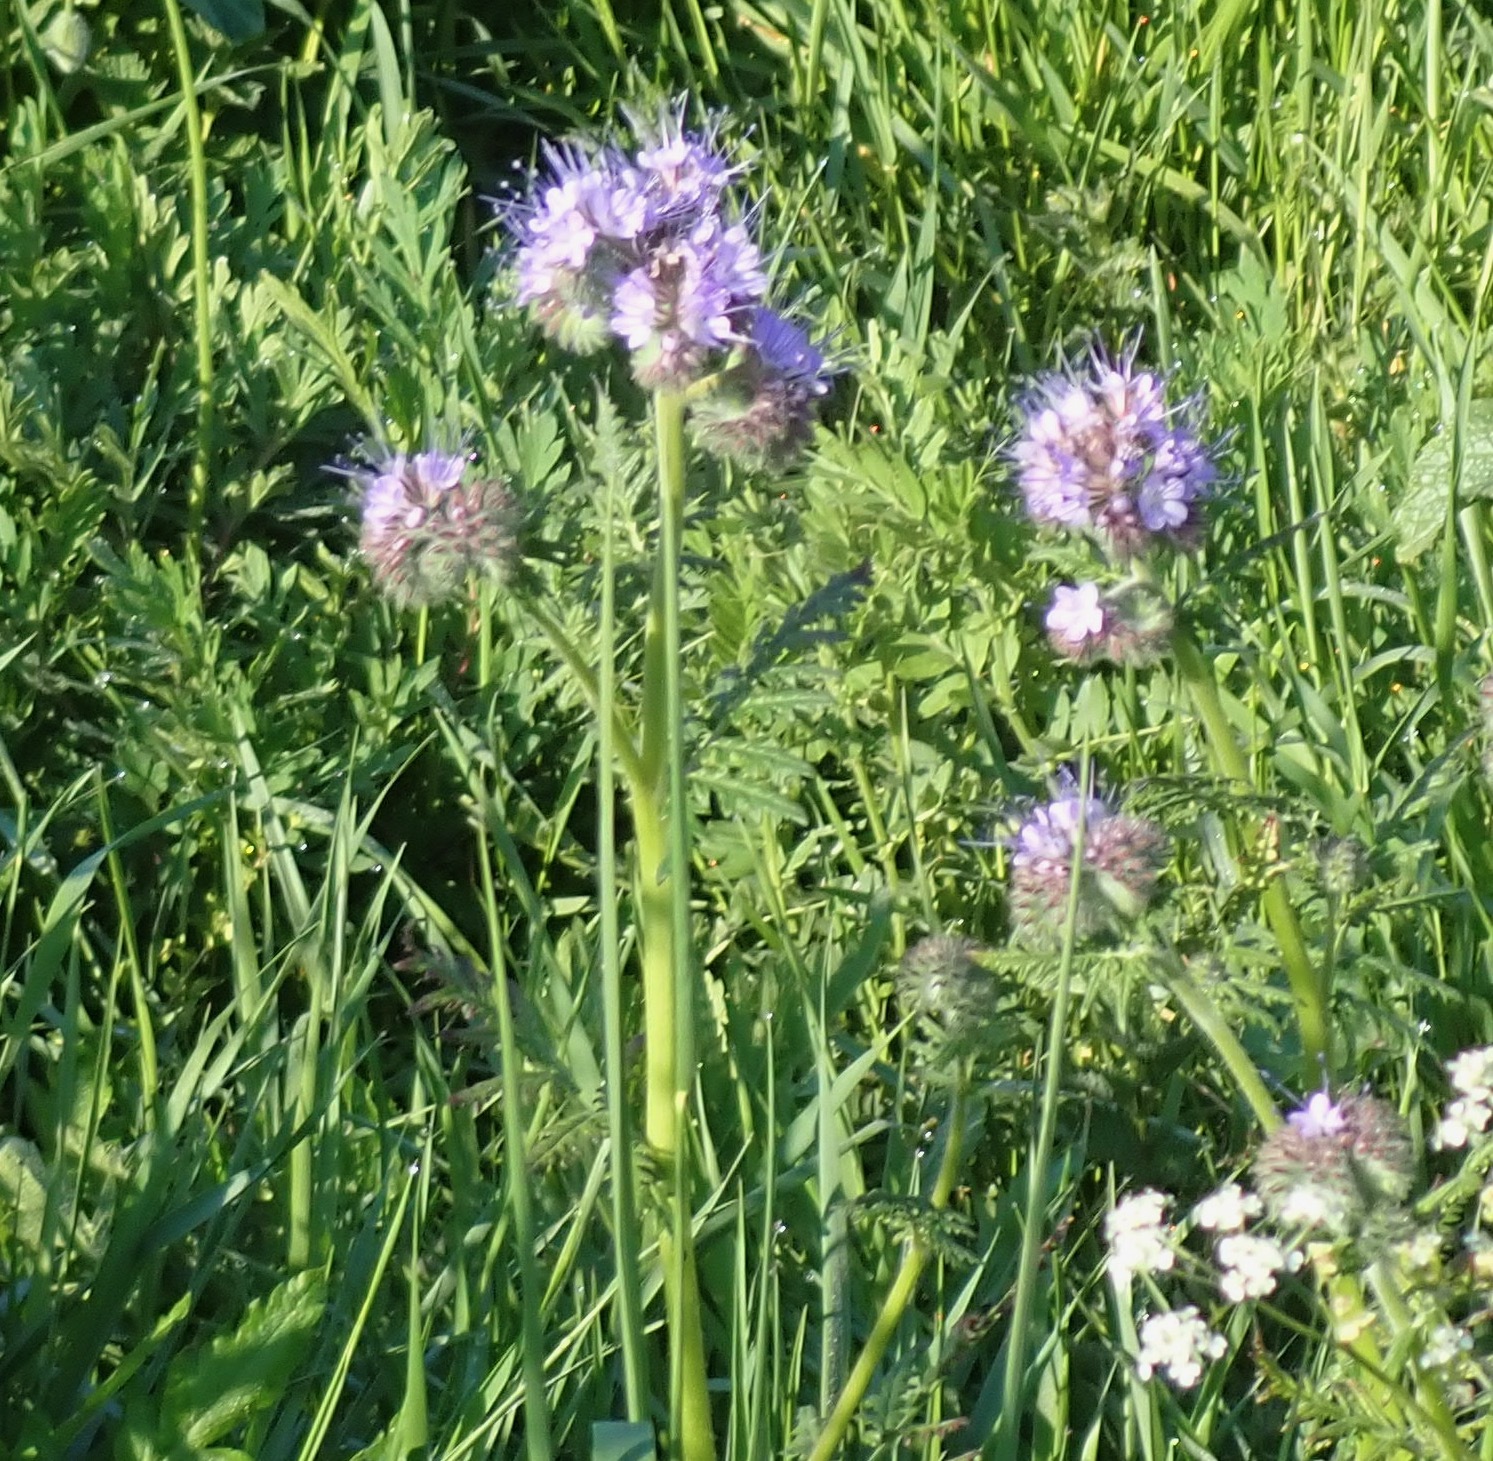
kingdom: Plantae
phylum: Tracheophyta
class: Magnoliopsida
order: Boraginales
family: Hydrophyllaceae
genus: Phacelia
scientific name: Phacelia tanacetifolia
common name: Phacelia
